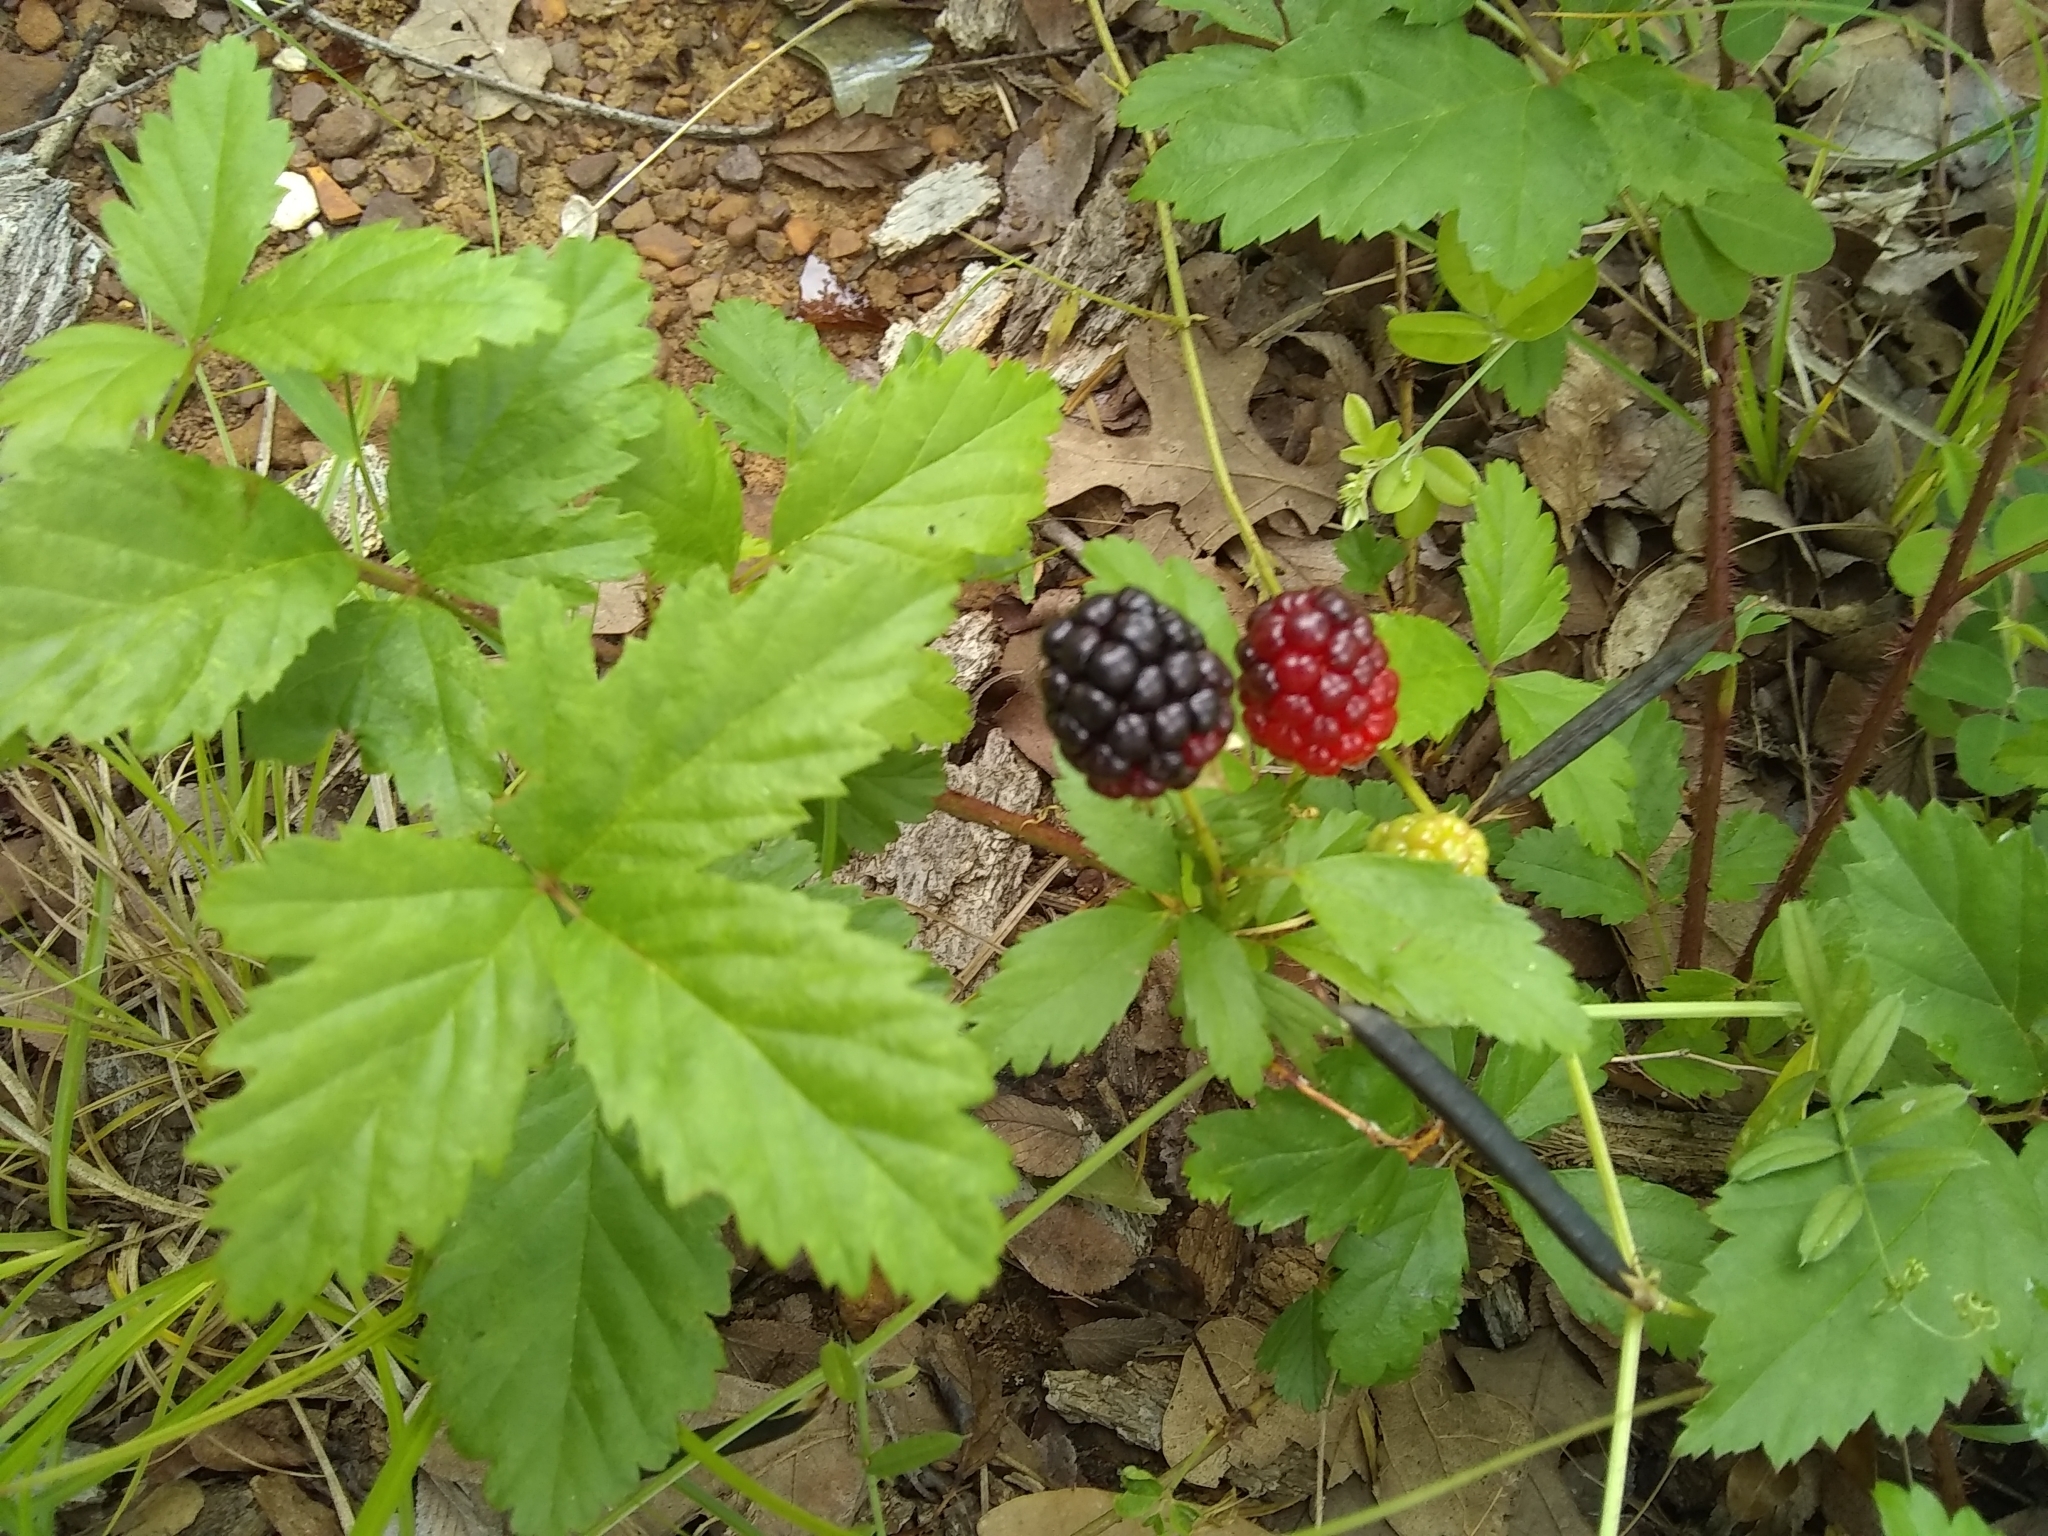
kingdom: Plantae
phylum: Tracheophyta
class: Magnoliopsida
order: Rosales
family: Rosaceae
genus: Rubus
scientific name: Rubus trivialis
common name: Southern dewberry
